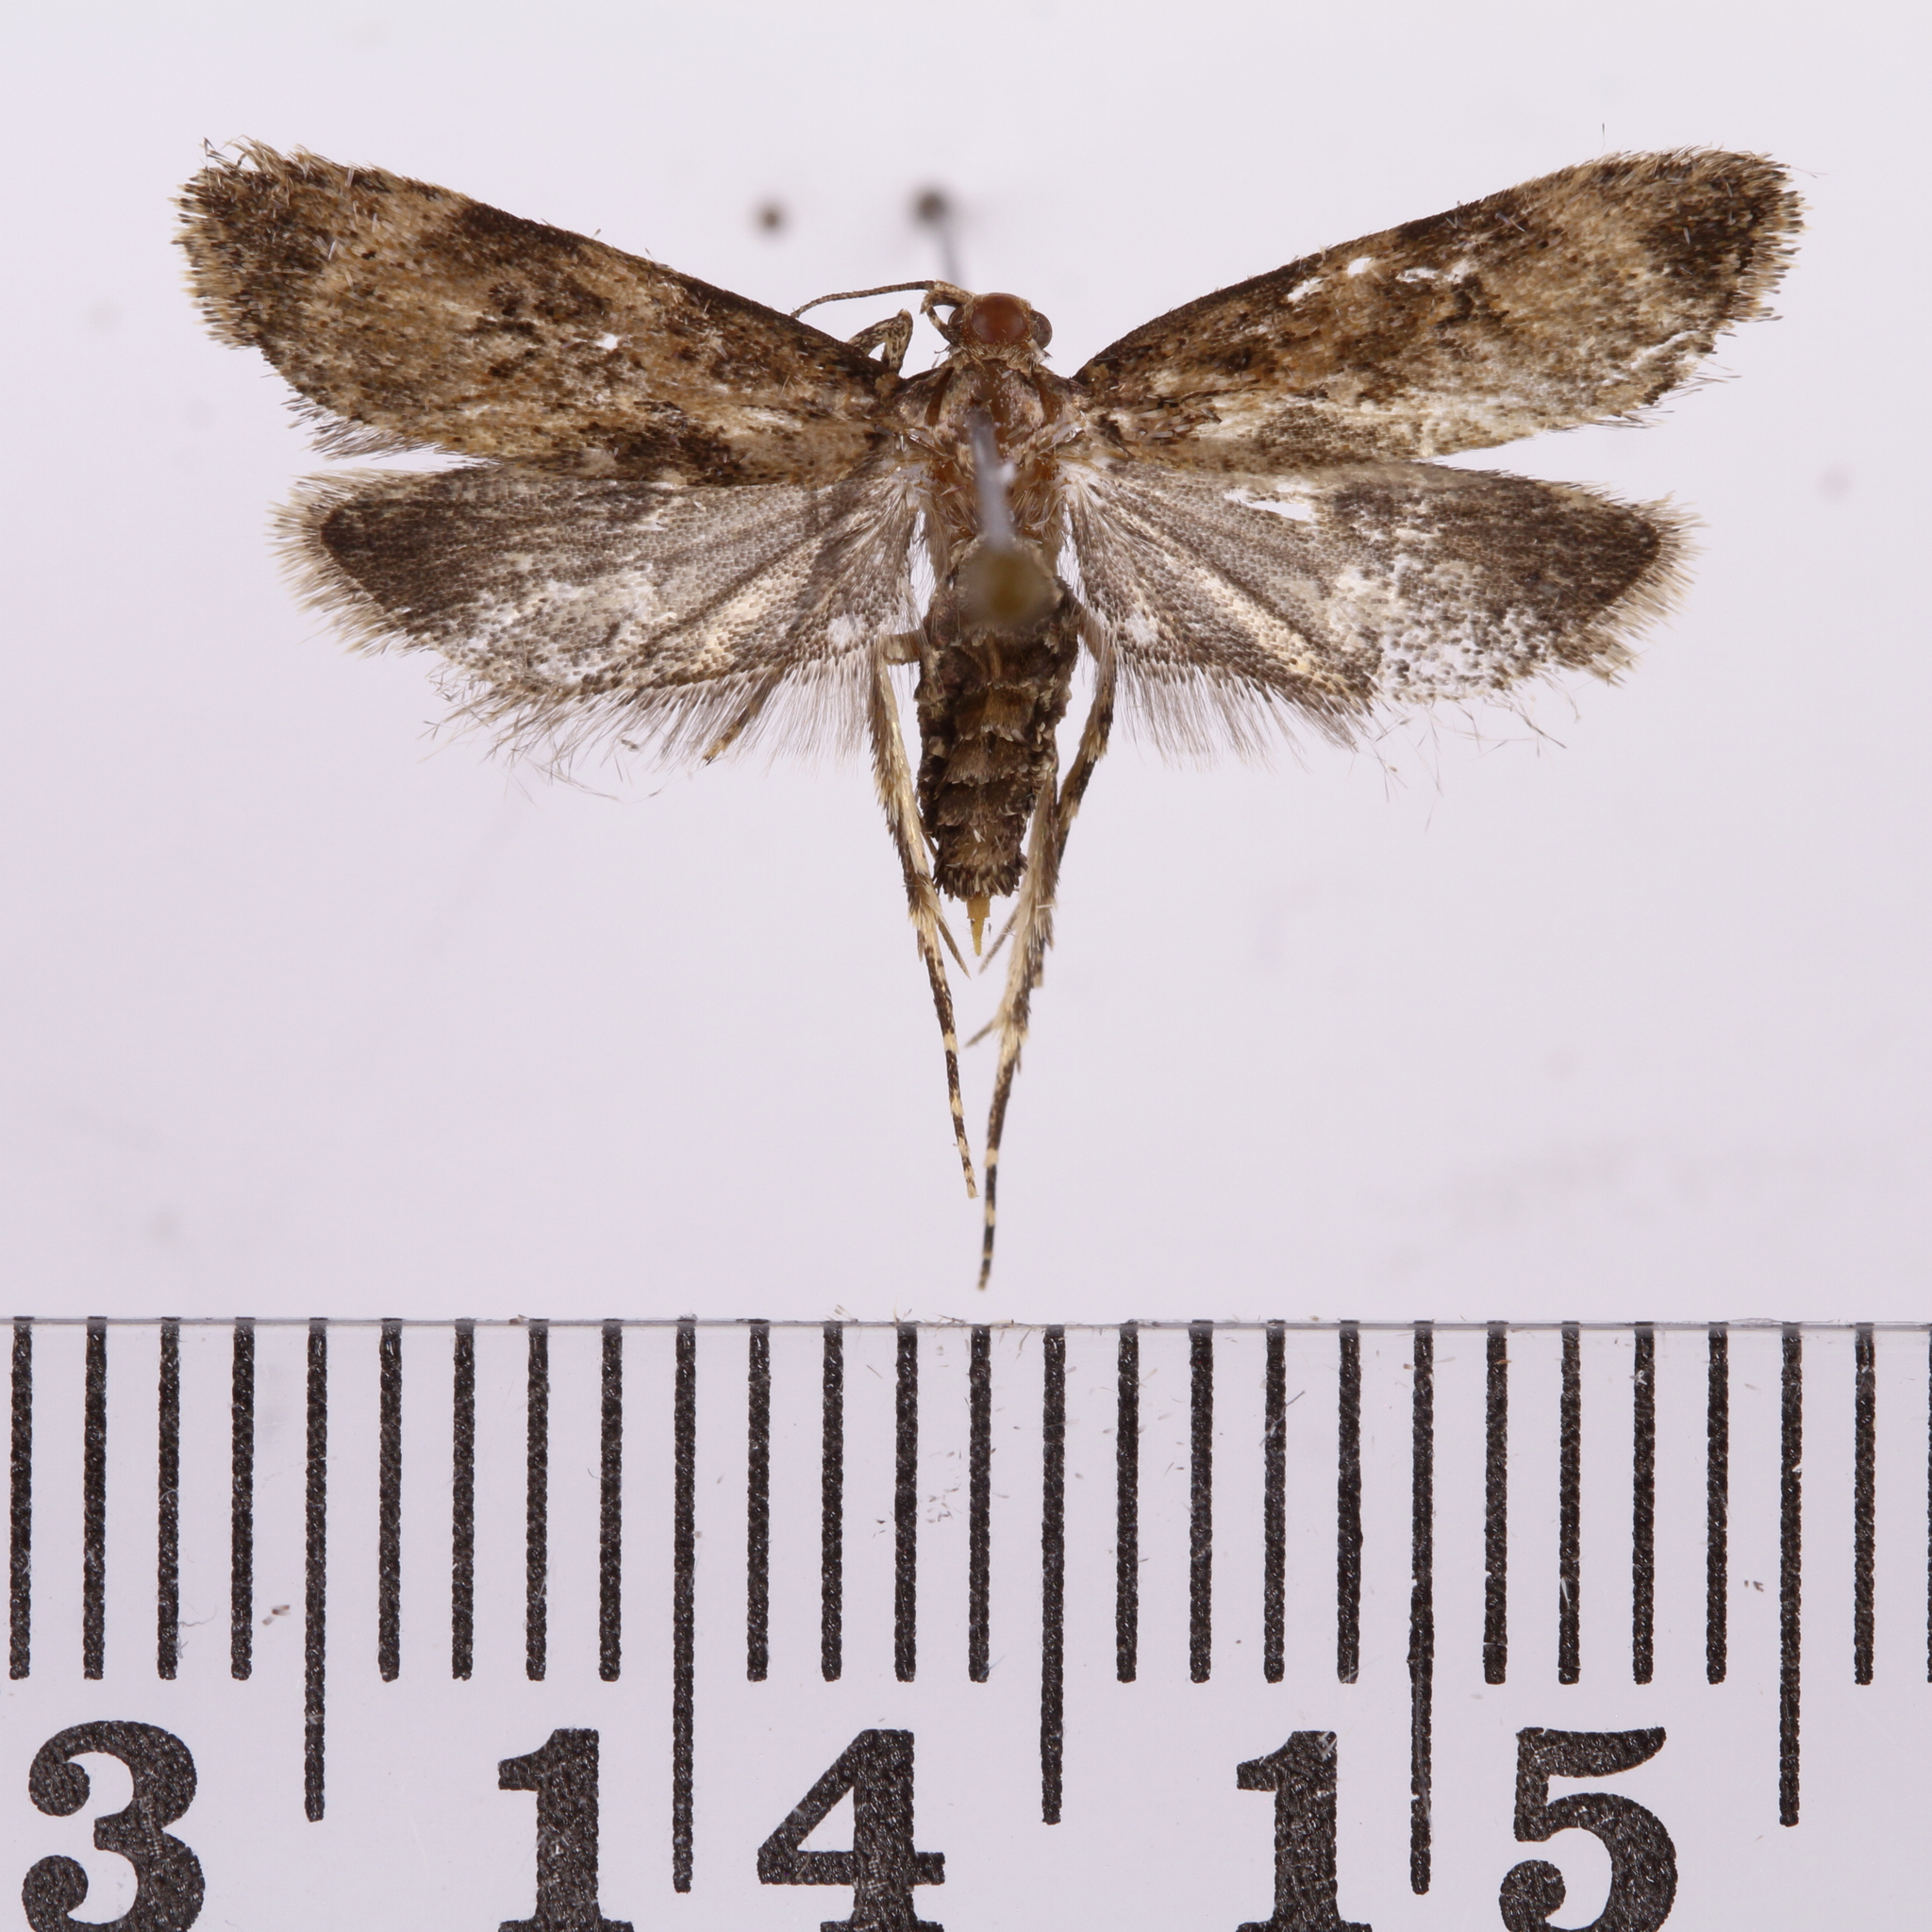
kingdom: Animalia
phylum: Arthropoda
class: Insecta
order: Lepidoptera
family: Oecophoridae
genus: Izatha
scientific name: Izatha austera
